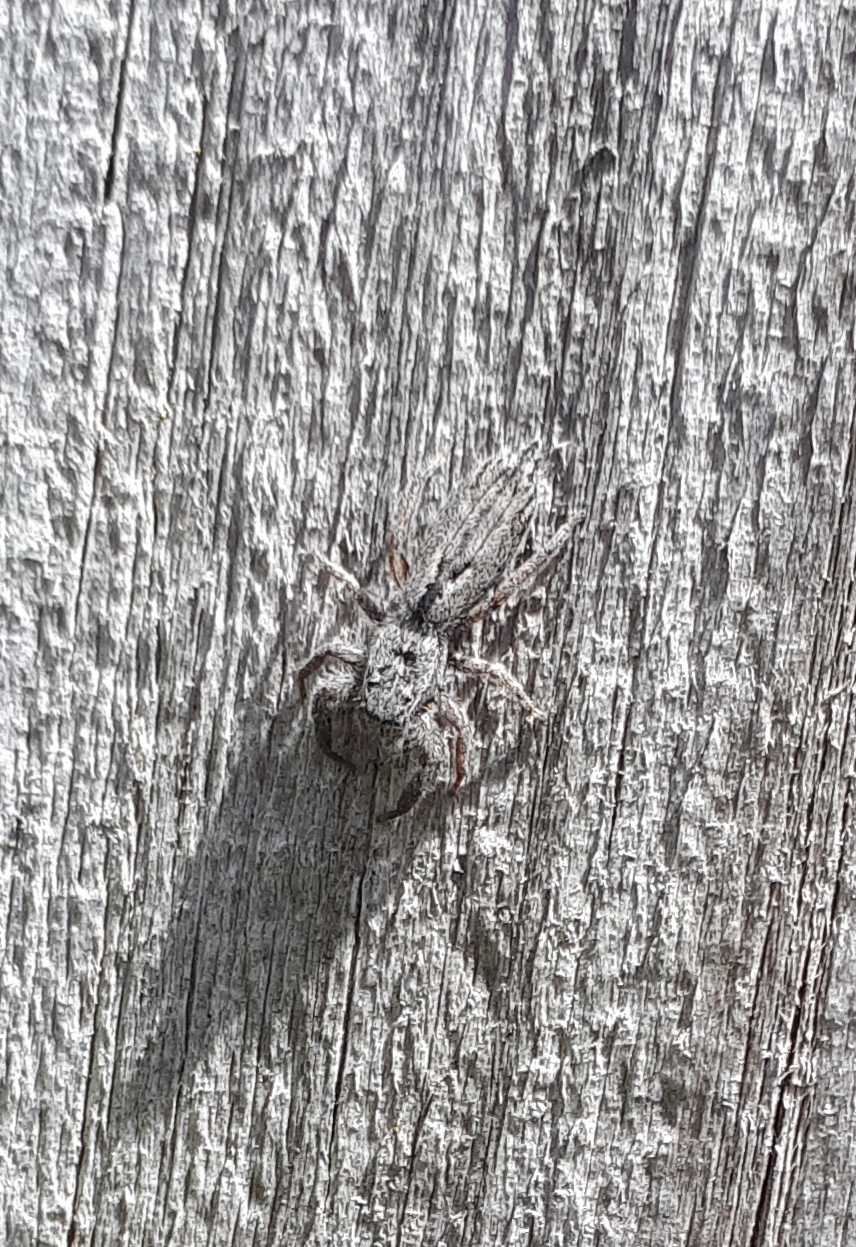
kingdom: Animalia
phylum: Arthropoda
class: Arachnida
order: Araneae
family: Salticidae
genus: Holoplatys
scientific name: Holoplatys apressus
